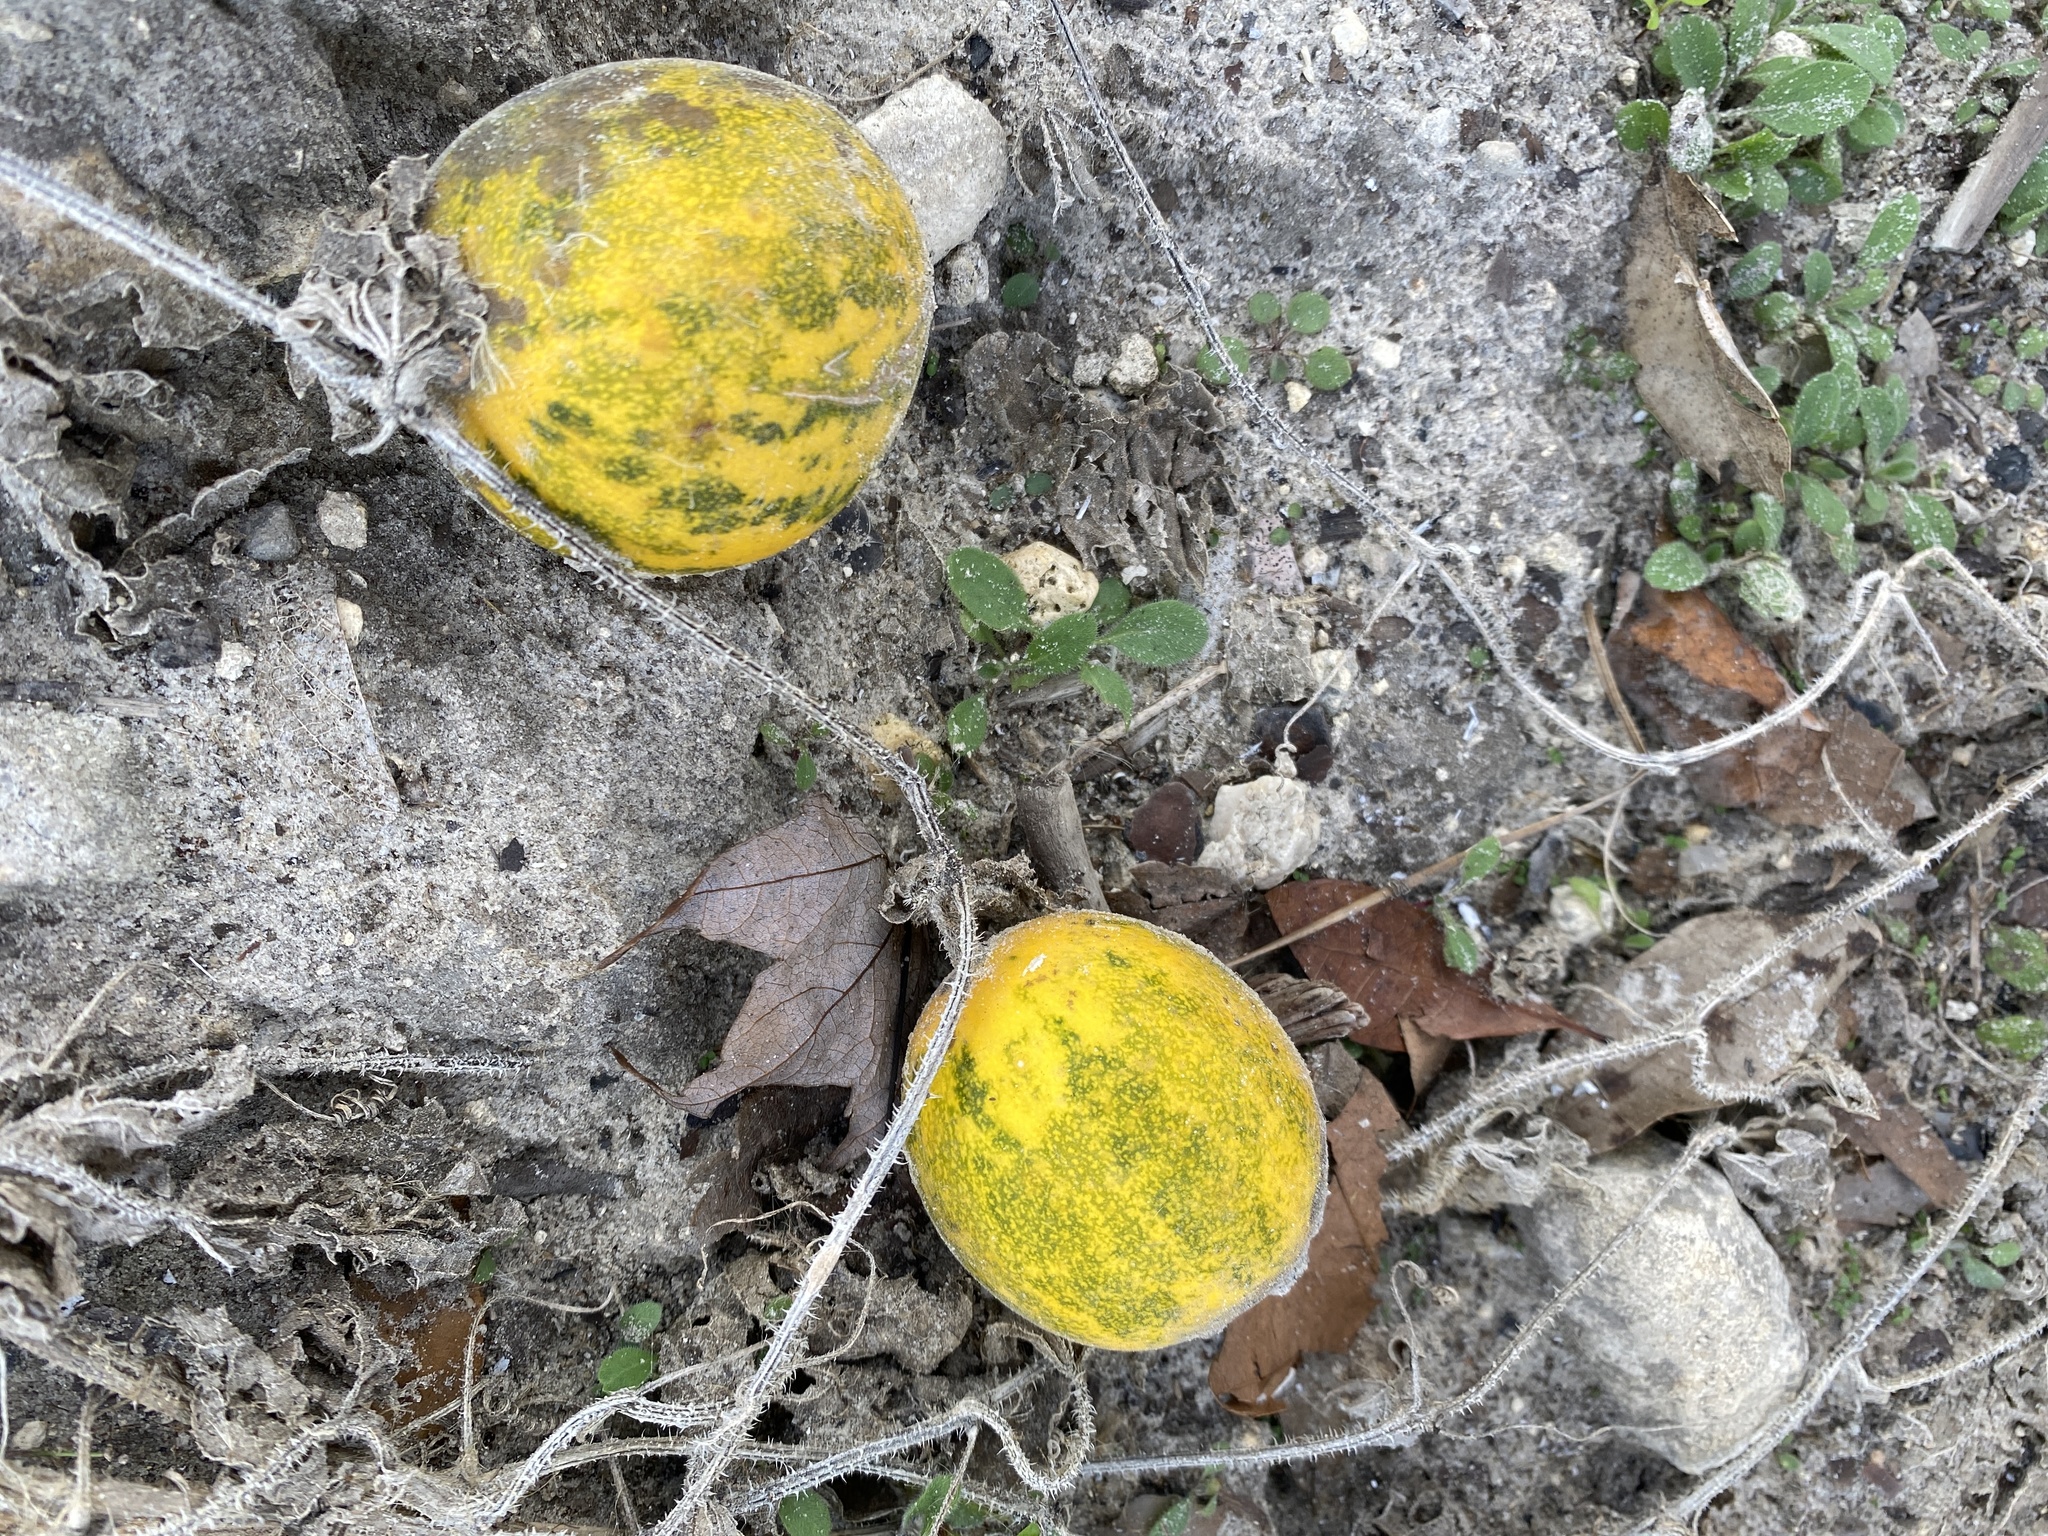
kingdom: Plantae
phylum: Tracheophyta
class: Magnoliopsida
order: Cucurbitales
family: Cucurbitaceae
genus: Cucumis
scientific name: Cucumis melo
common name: Melon
